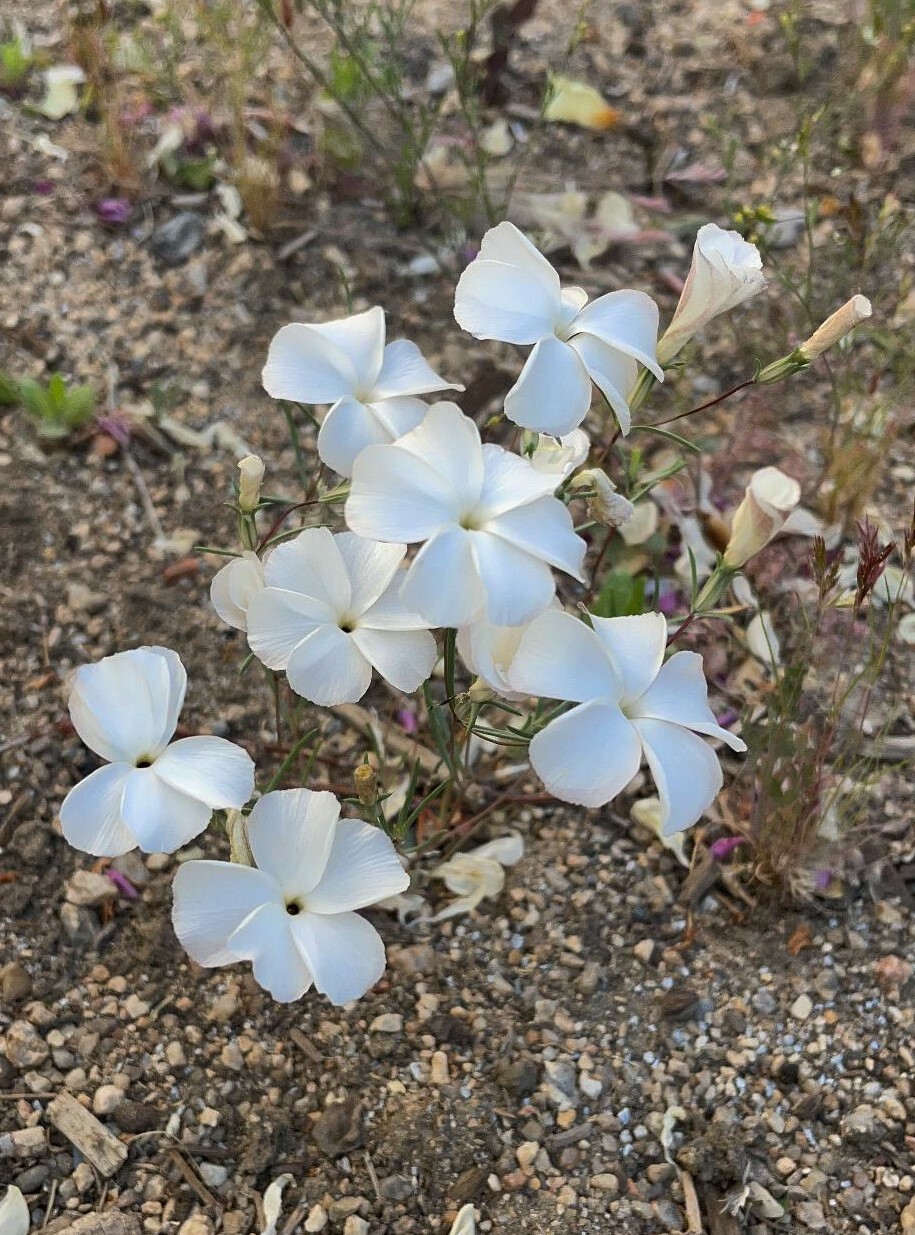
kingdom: Plantae
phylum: Tracheophyta
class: Magnoliopsida
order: Ericales
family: Polemoniaceae
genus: Linanthus
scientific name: Linanthus dichotomus
